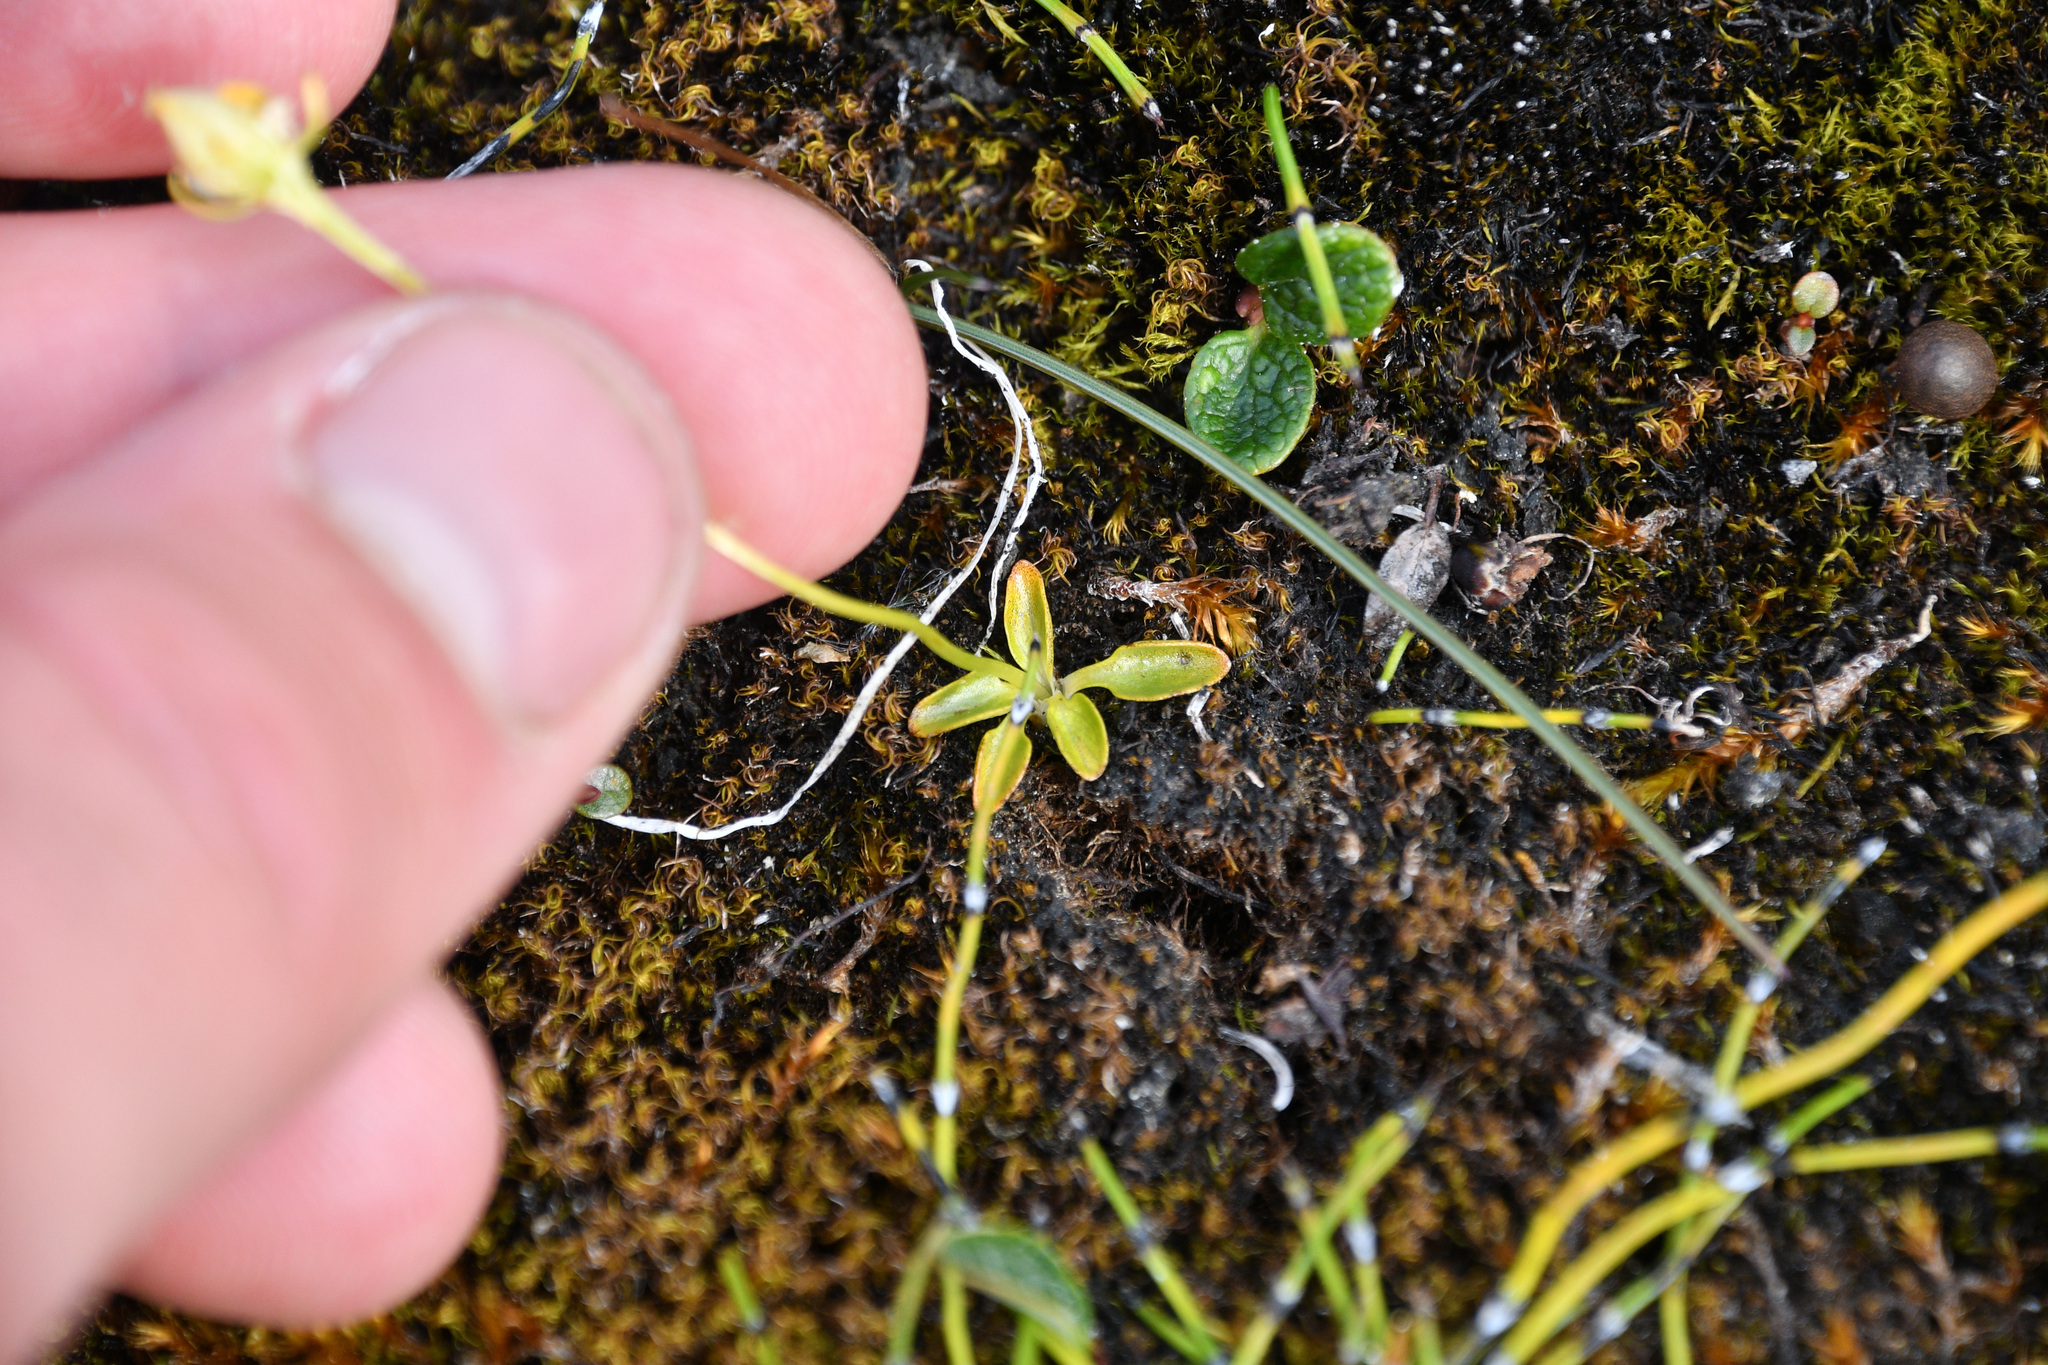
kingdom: Plantae
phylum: Tracheophyta
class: Magnoliopsida
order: Celastrales
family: Parnassiaceae
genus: Parnassia
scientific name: Parnassia kotzebuei
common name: Kotzebue's grass-of-parnassus
